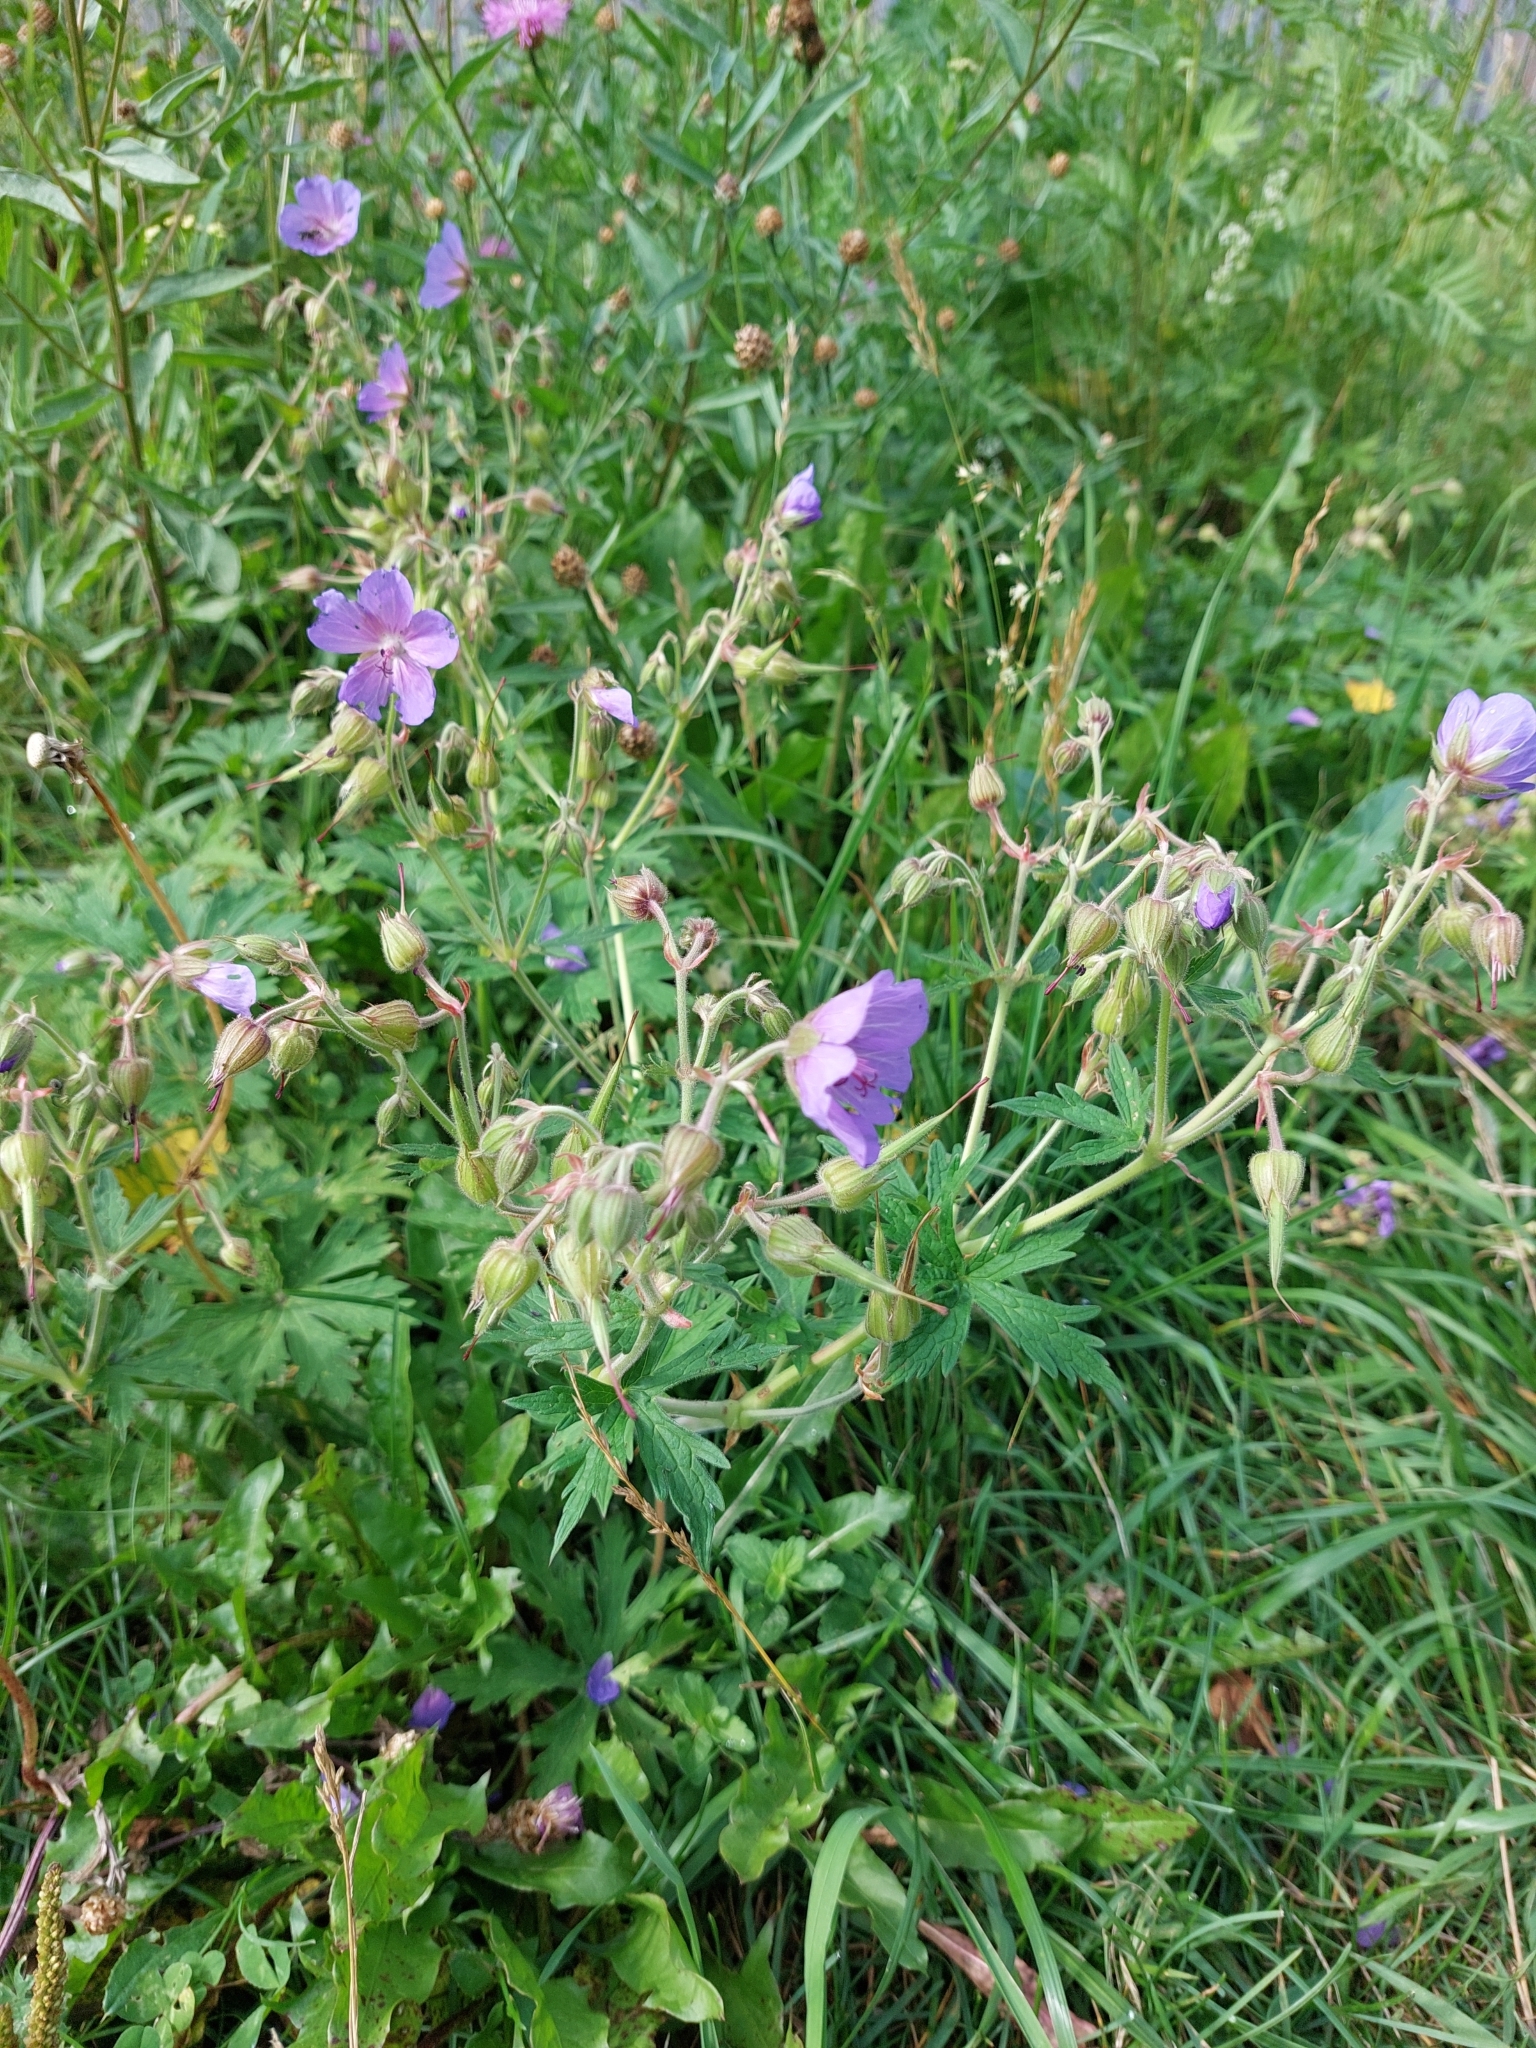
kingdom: Plantae
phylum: Tracheophyta
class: Magnoliopsida
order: Geraniales
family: Geraniaceae
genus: Geranium
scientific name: Geranium pratense
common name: Meadow crane's-bill
